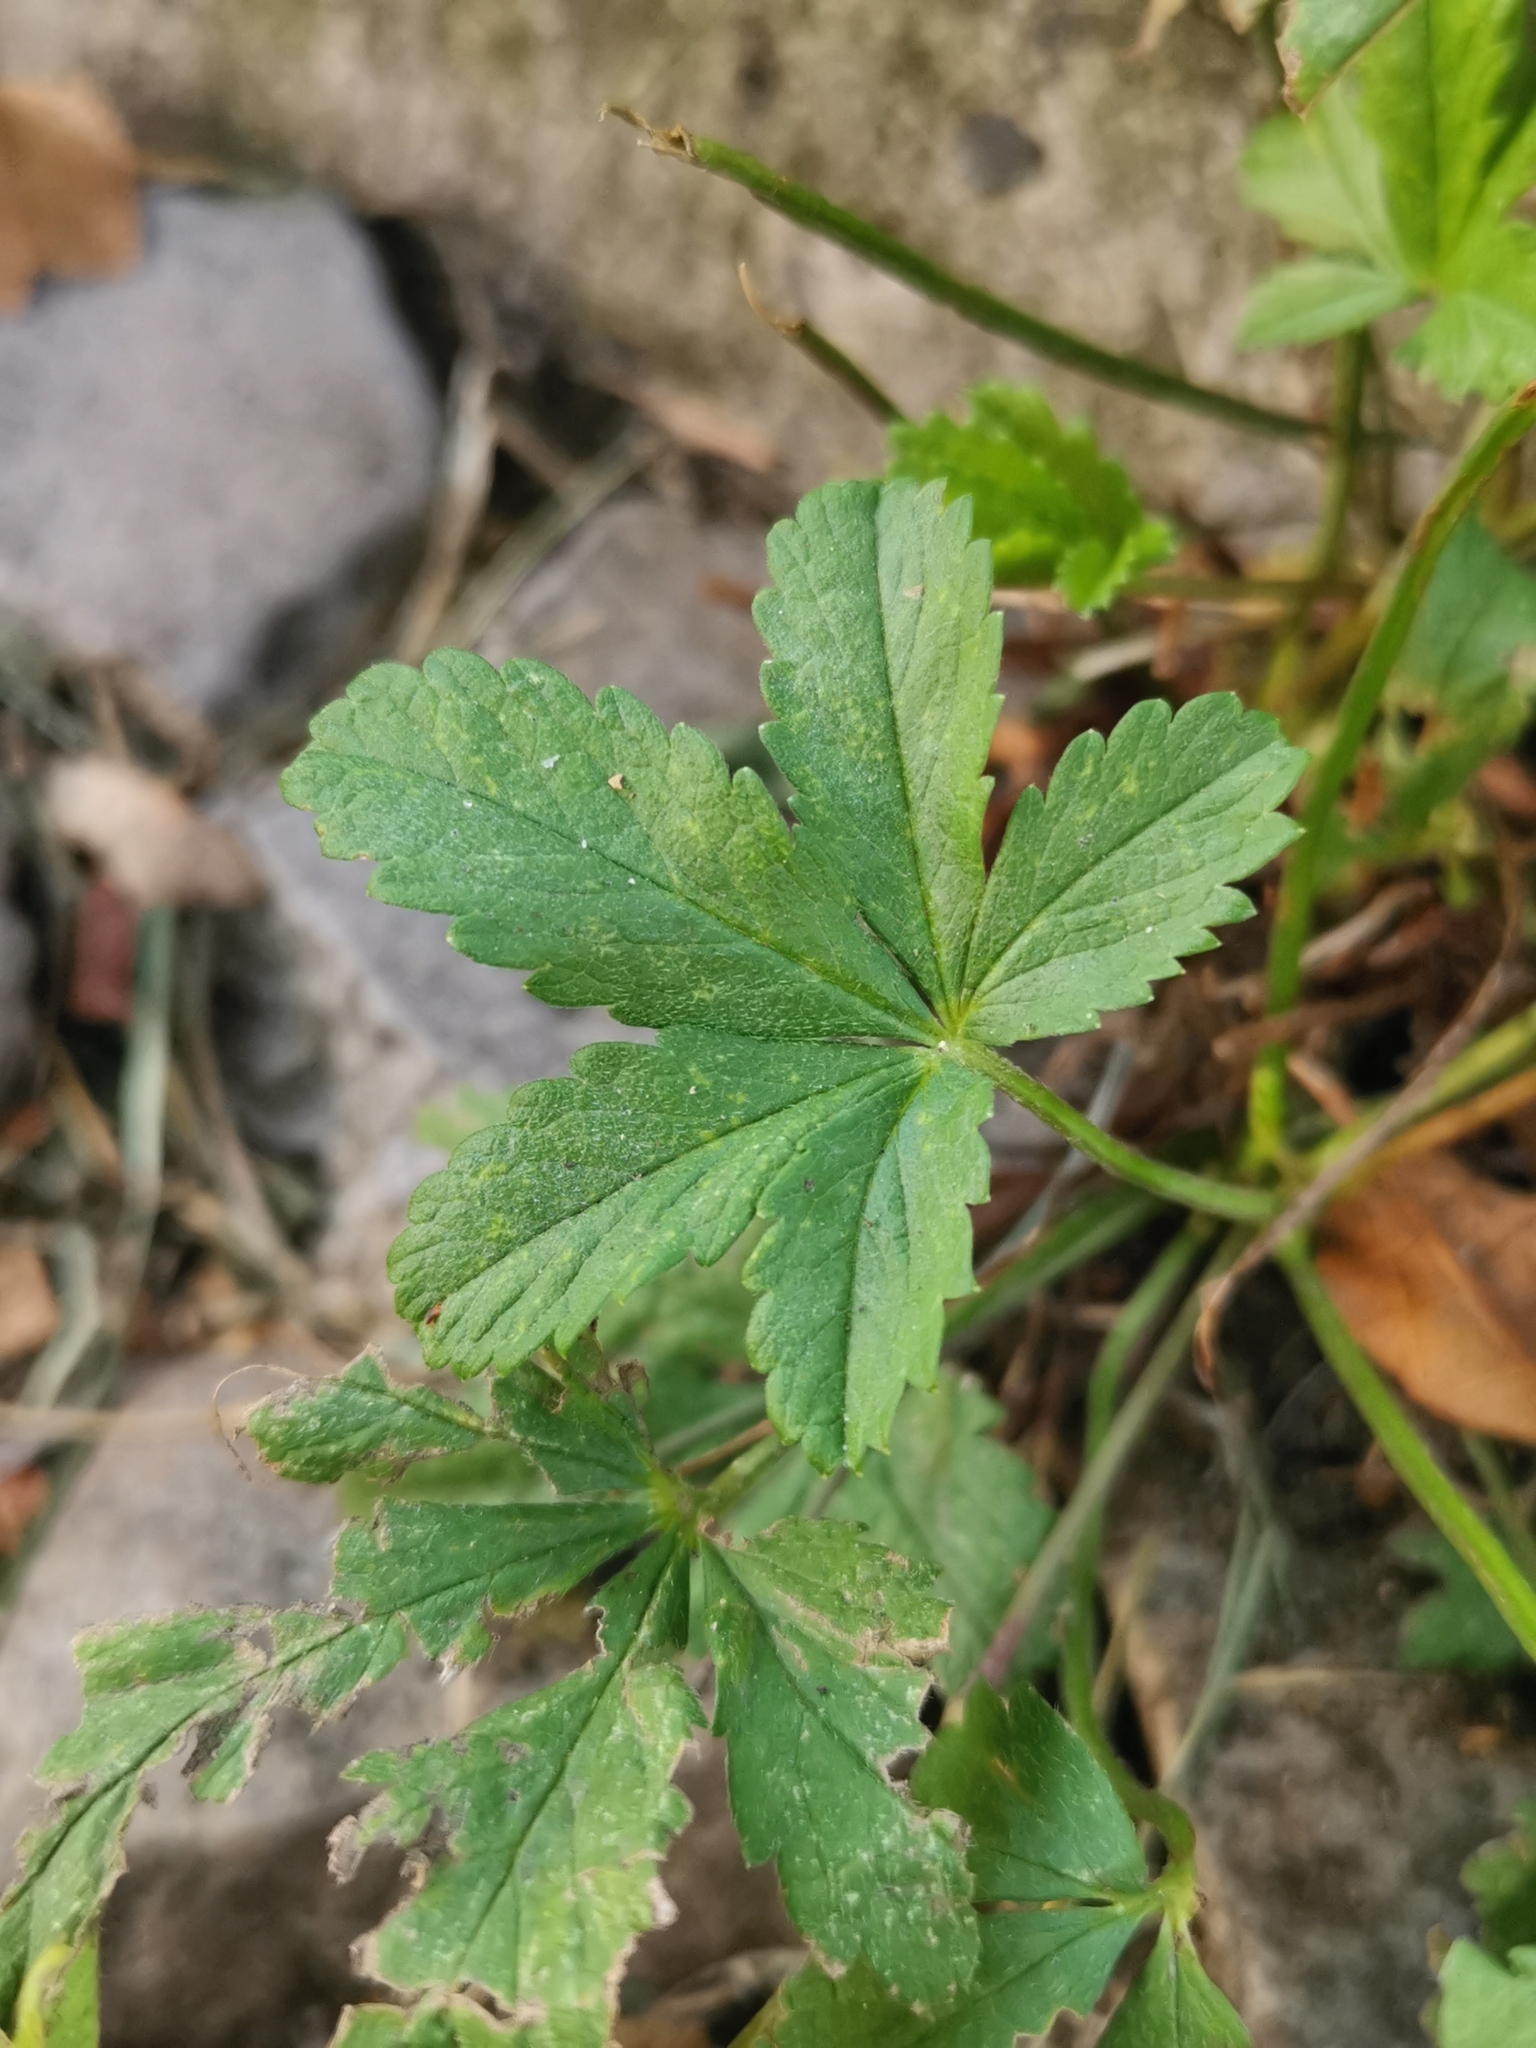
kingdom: Plantae
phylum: Tracheophyta
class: Magnoliopsida
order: Rosales
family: Rosaceae
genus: Potentilla
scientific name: Potentilla reptans
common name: Creeping cinquefoil
